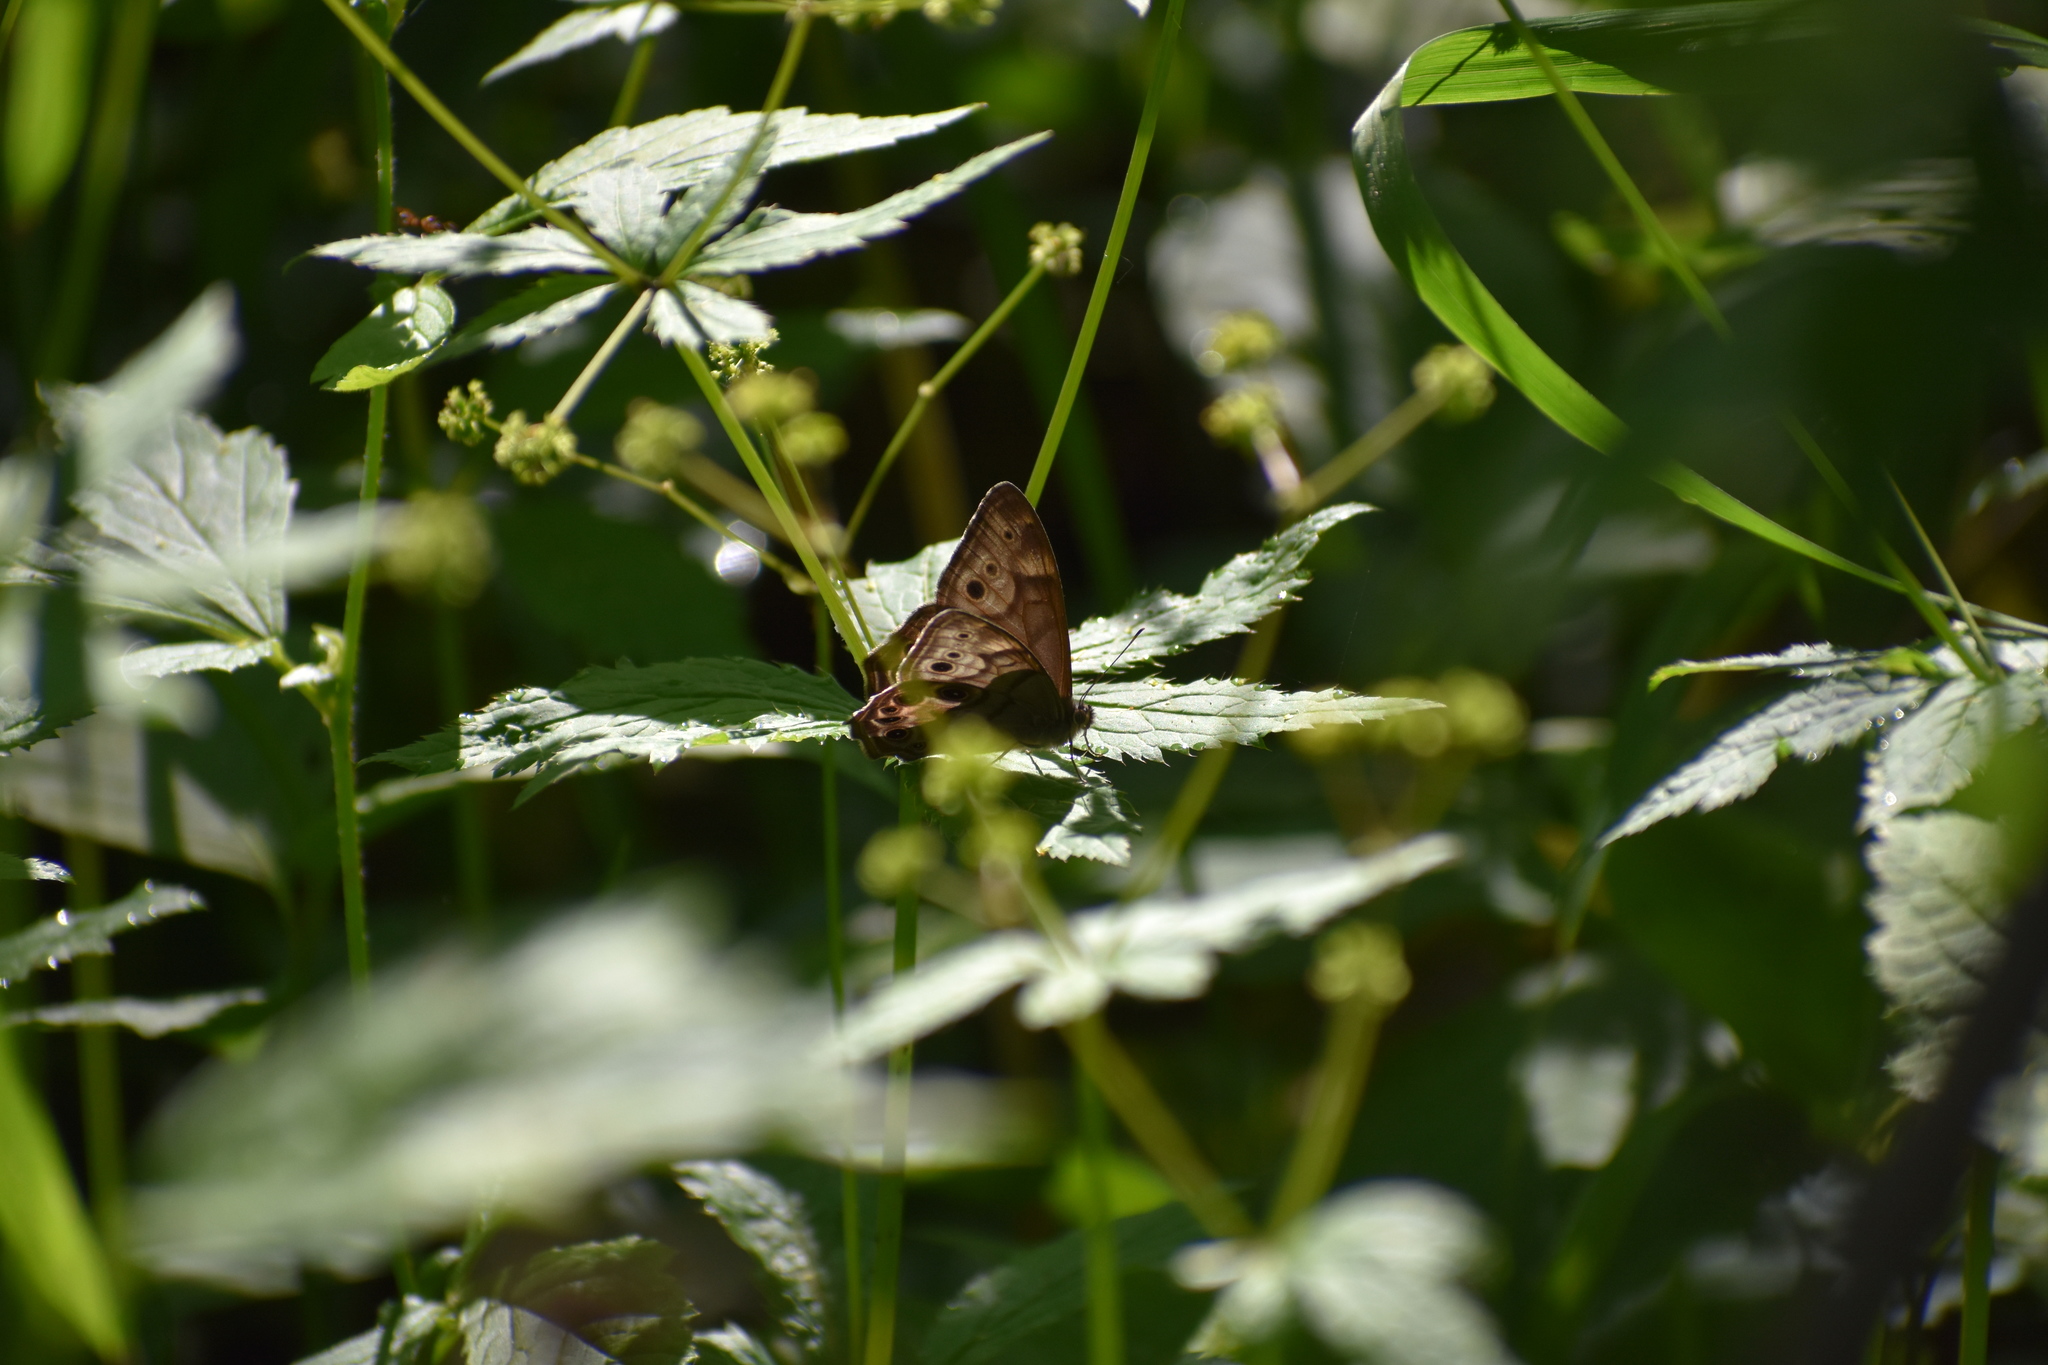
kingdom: Animalia
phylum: Arthropoda
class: Insecta
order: Lepidoptera
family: Nymphalidae
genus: Lethe
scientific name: Lethe anthedon
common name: Northern pearly-eye
